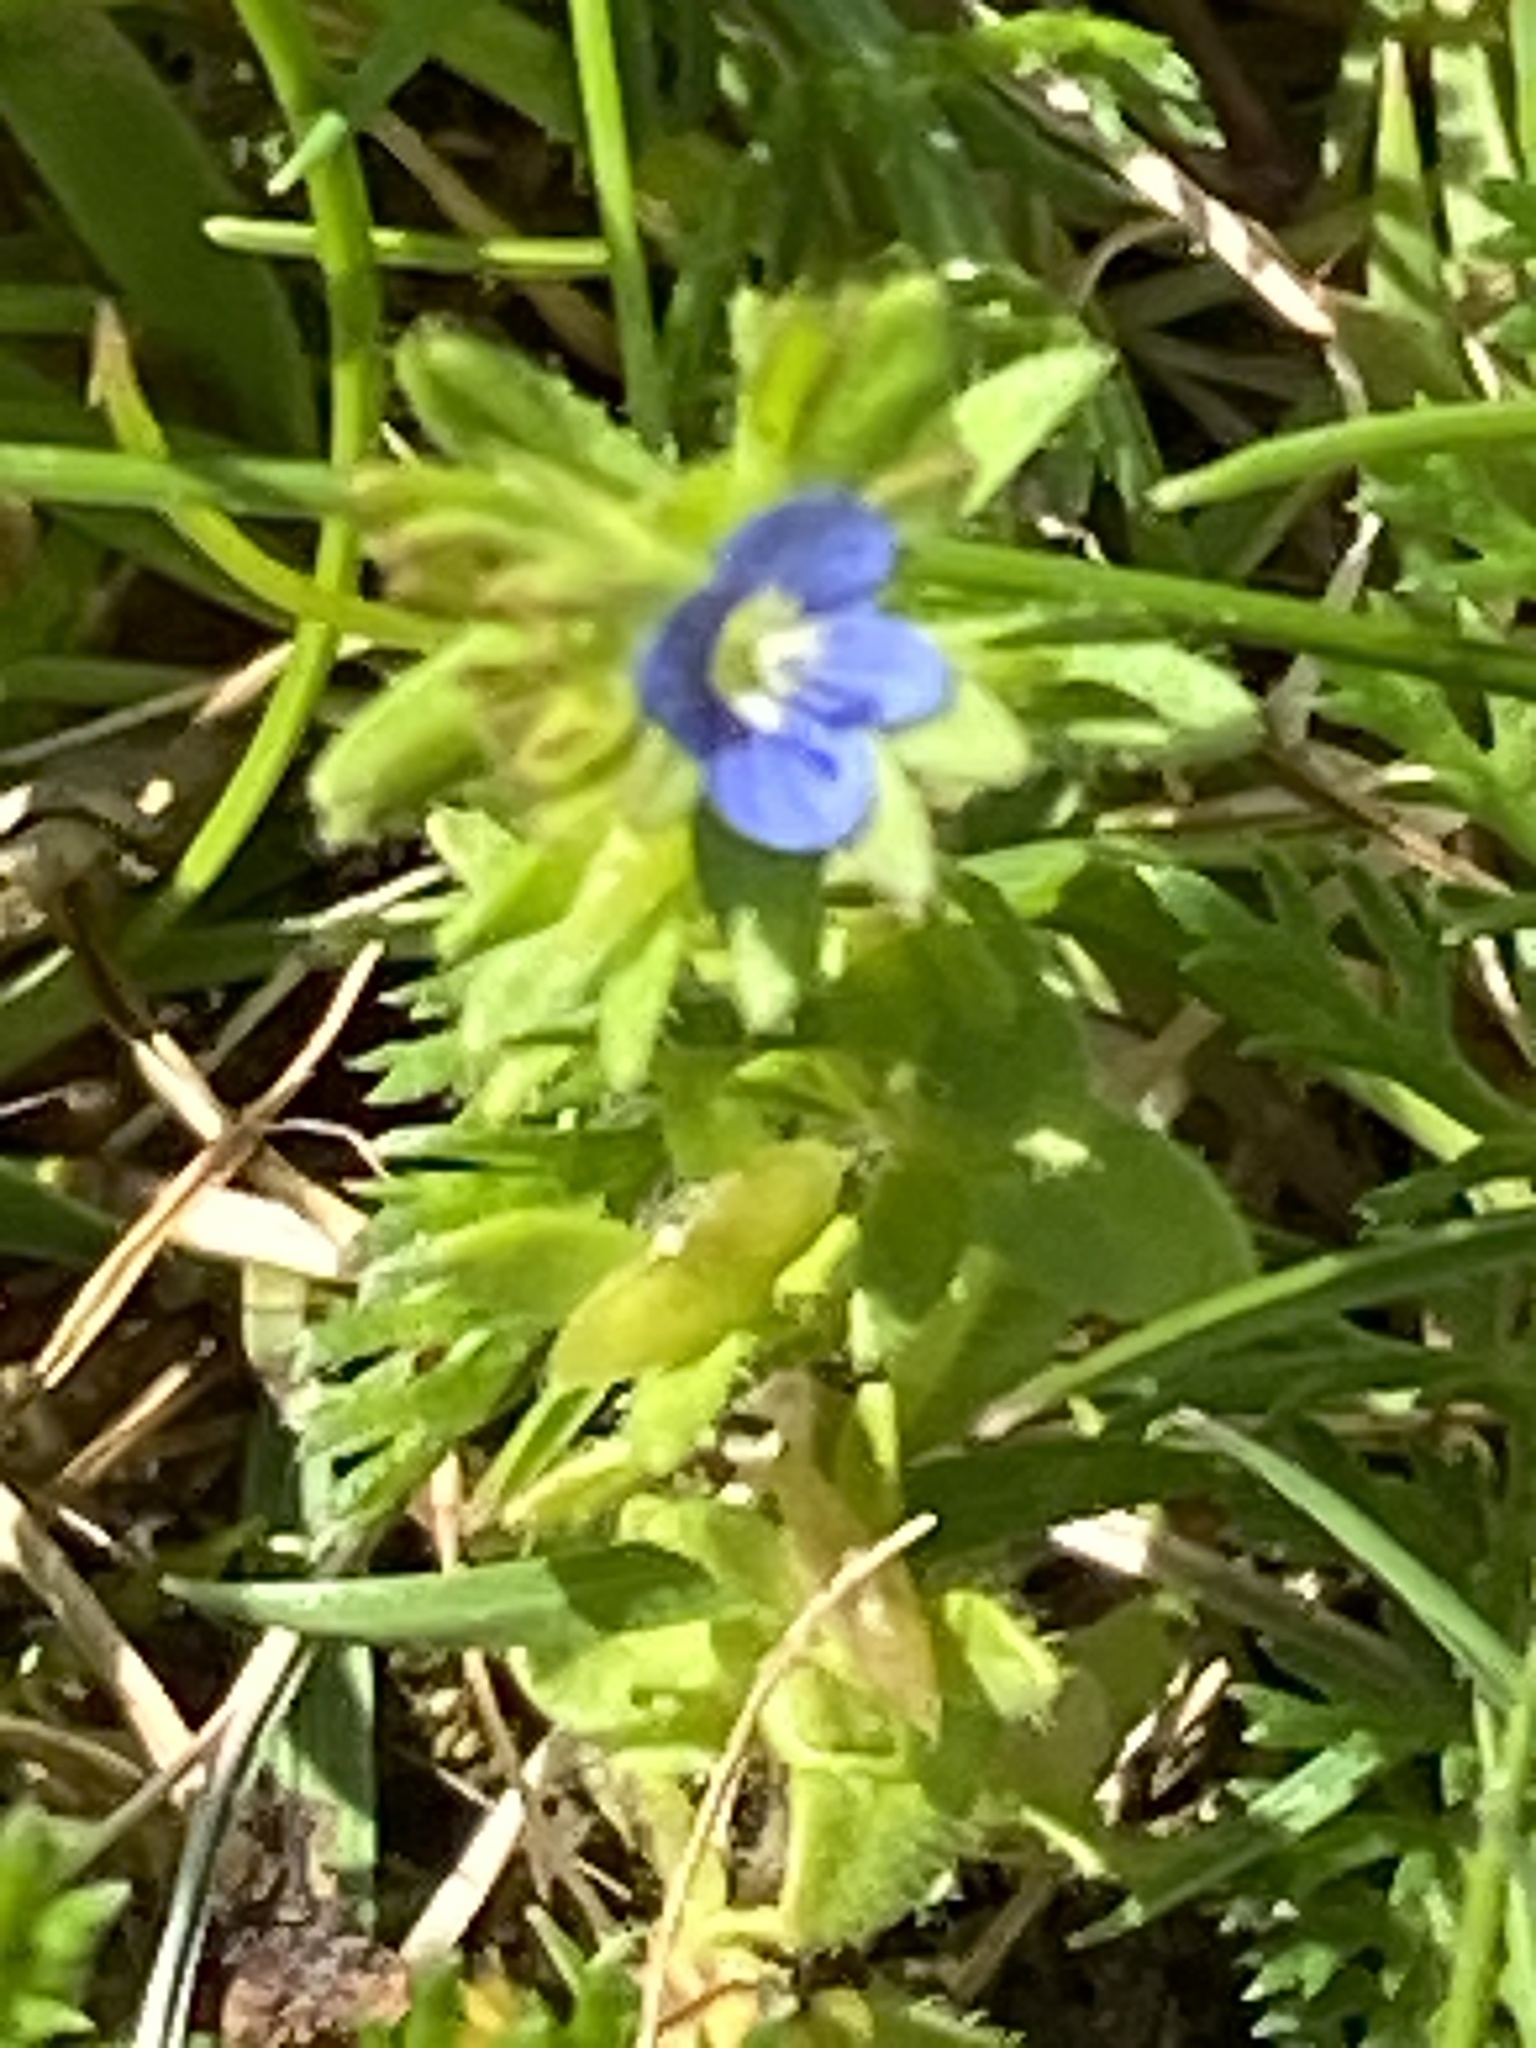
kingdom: Plantae
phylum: Tracheophyta
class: Magnoliopsida
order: Lamiales
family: Plantaginaceae
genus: Veronica
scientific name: Veronica arvensis
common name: Corn speedwell
